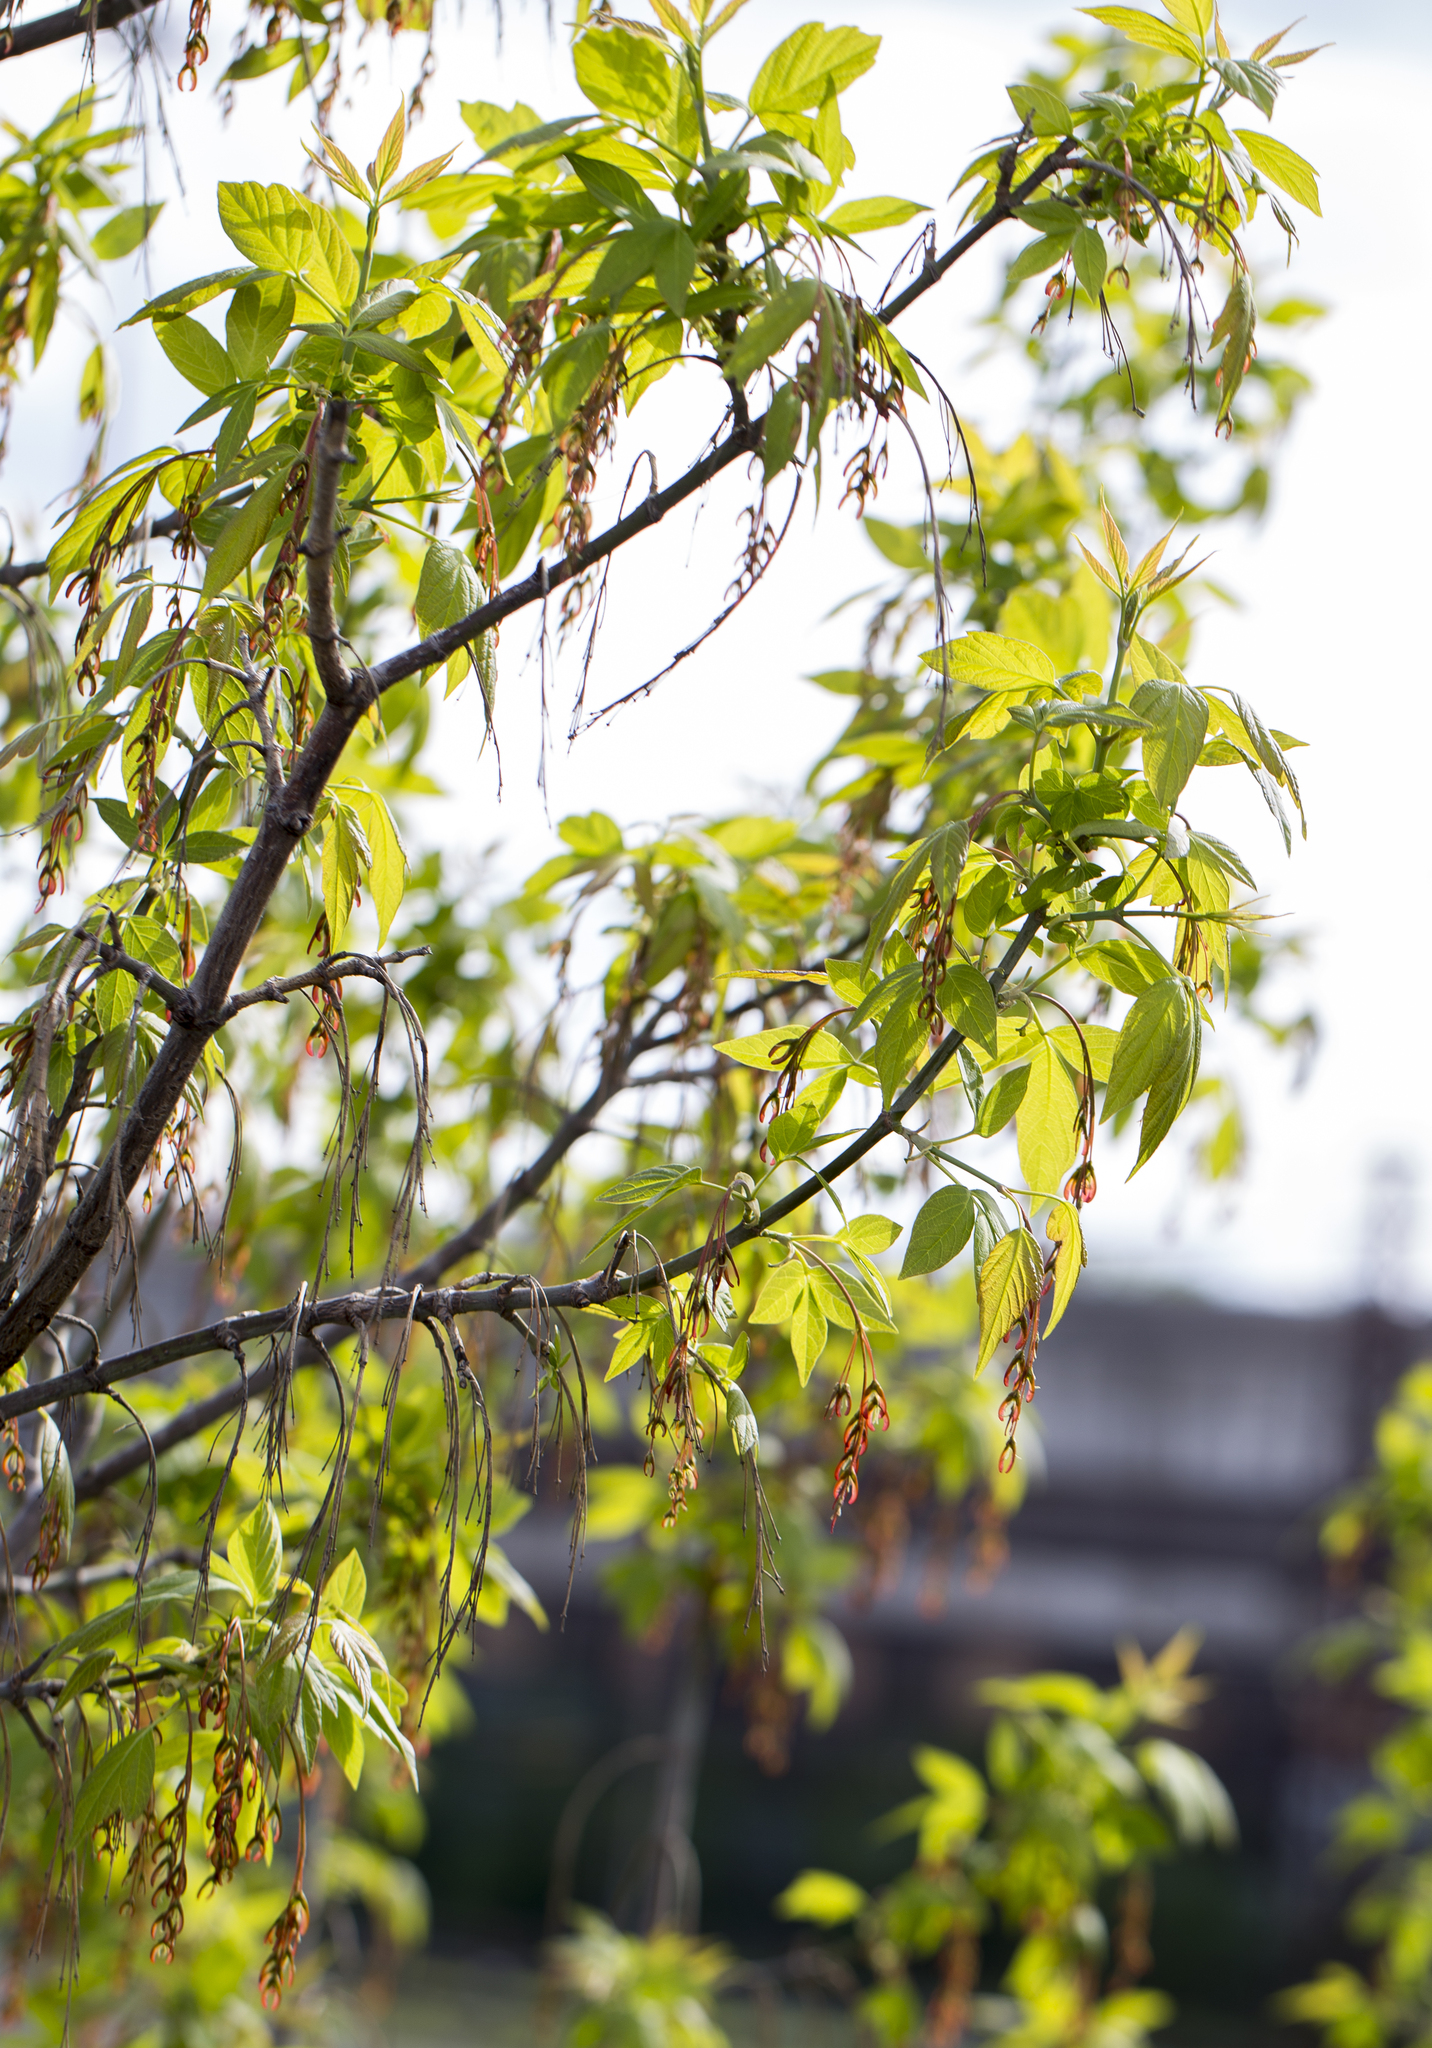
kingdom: Plantae
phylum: Tracheophyta
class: Magnoliopsida
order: Sapindales
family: Sapindaceae
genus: Acer
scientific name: Acer negundo
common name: Ashleaf maple
